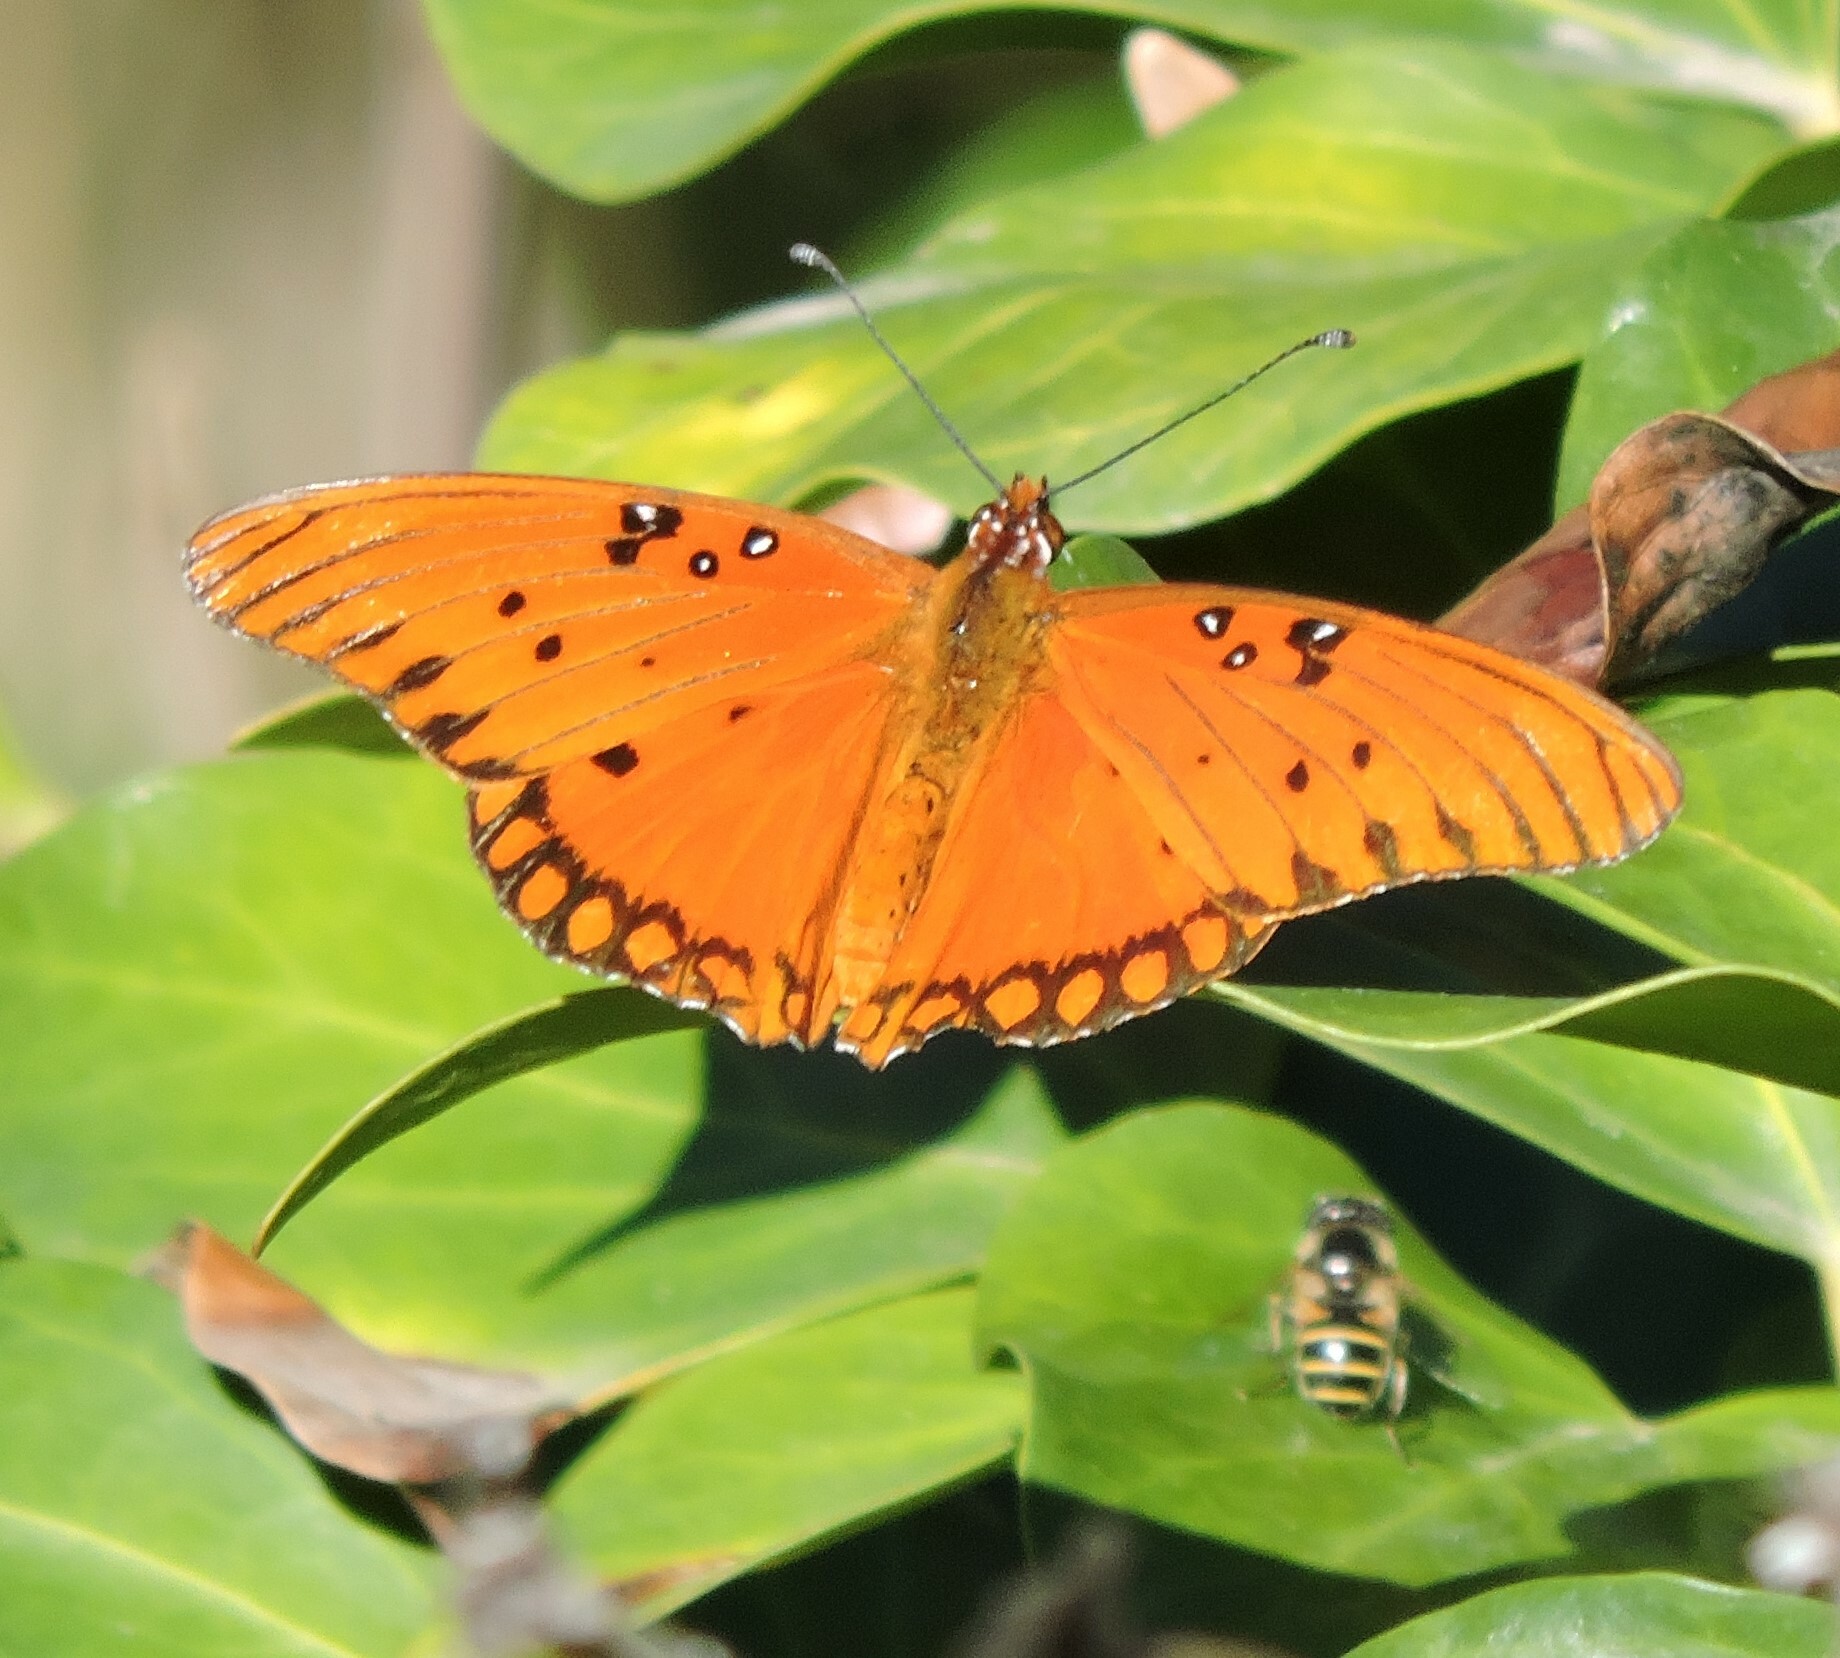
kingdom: Animalia
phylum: Arthropoda
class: Insecta
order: Lepidoptera
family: Nymphalidae
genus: Dione
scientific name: Dione vanillae
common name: Gulf fritillary
